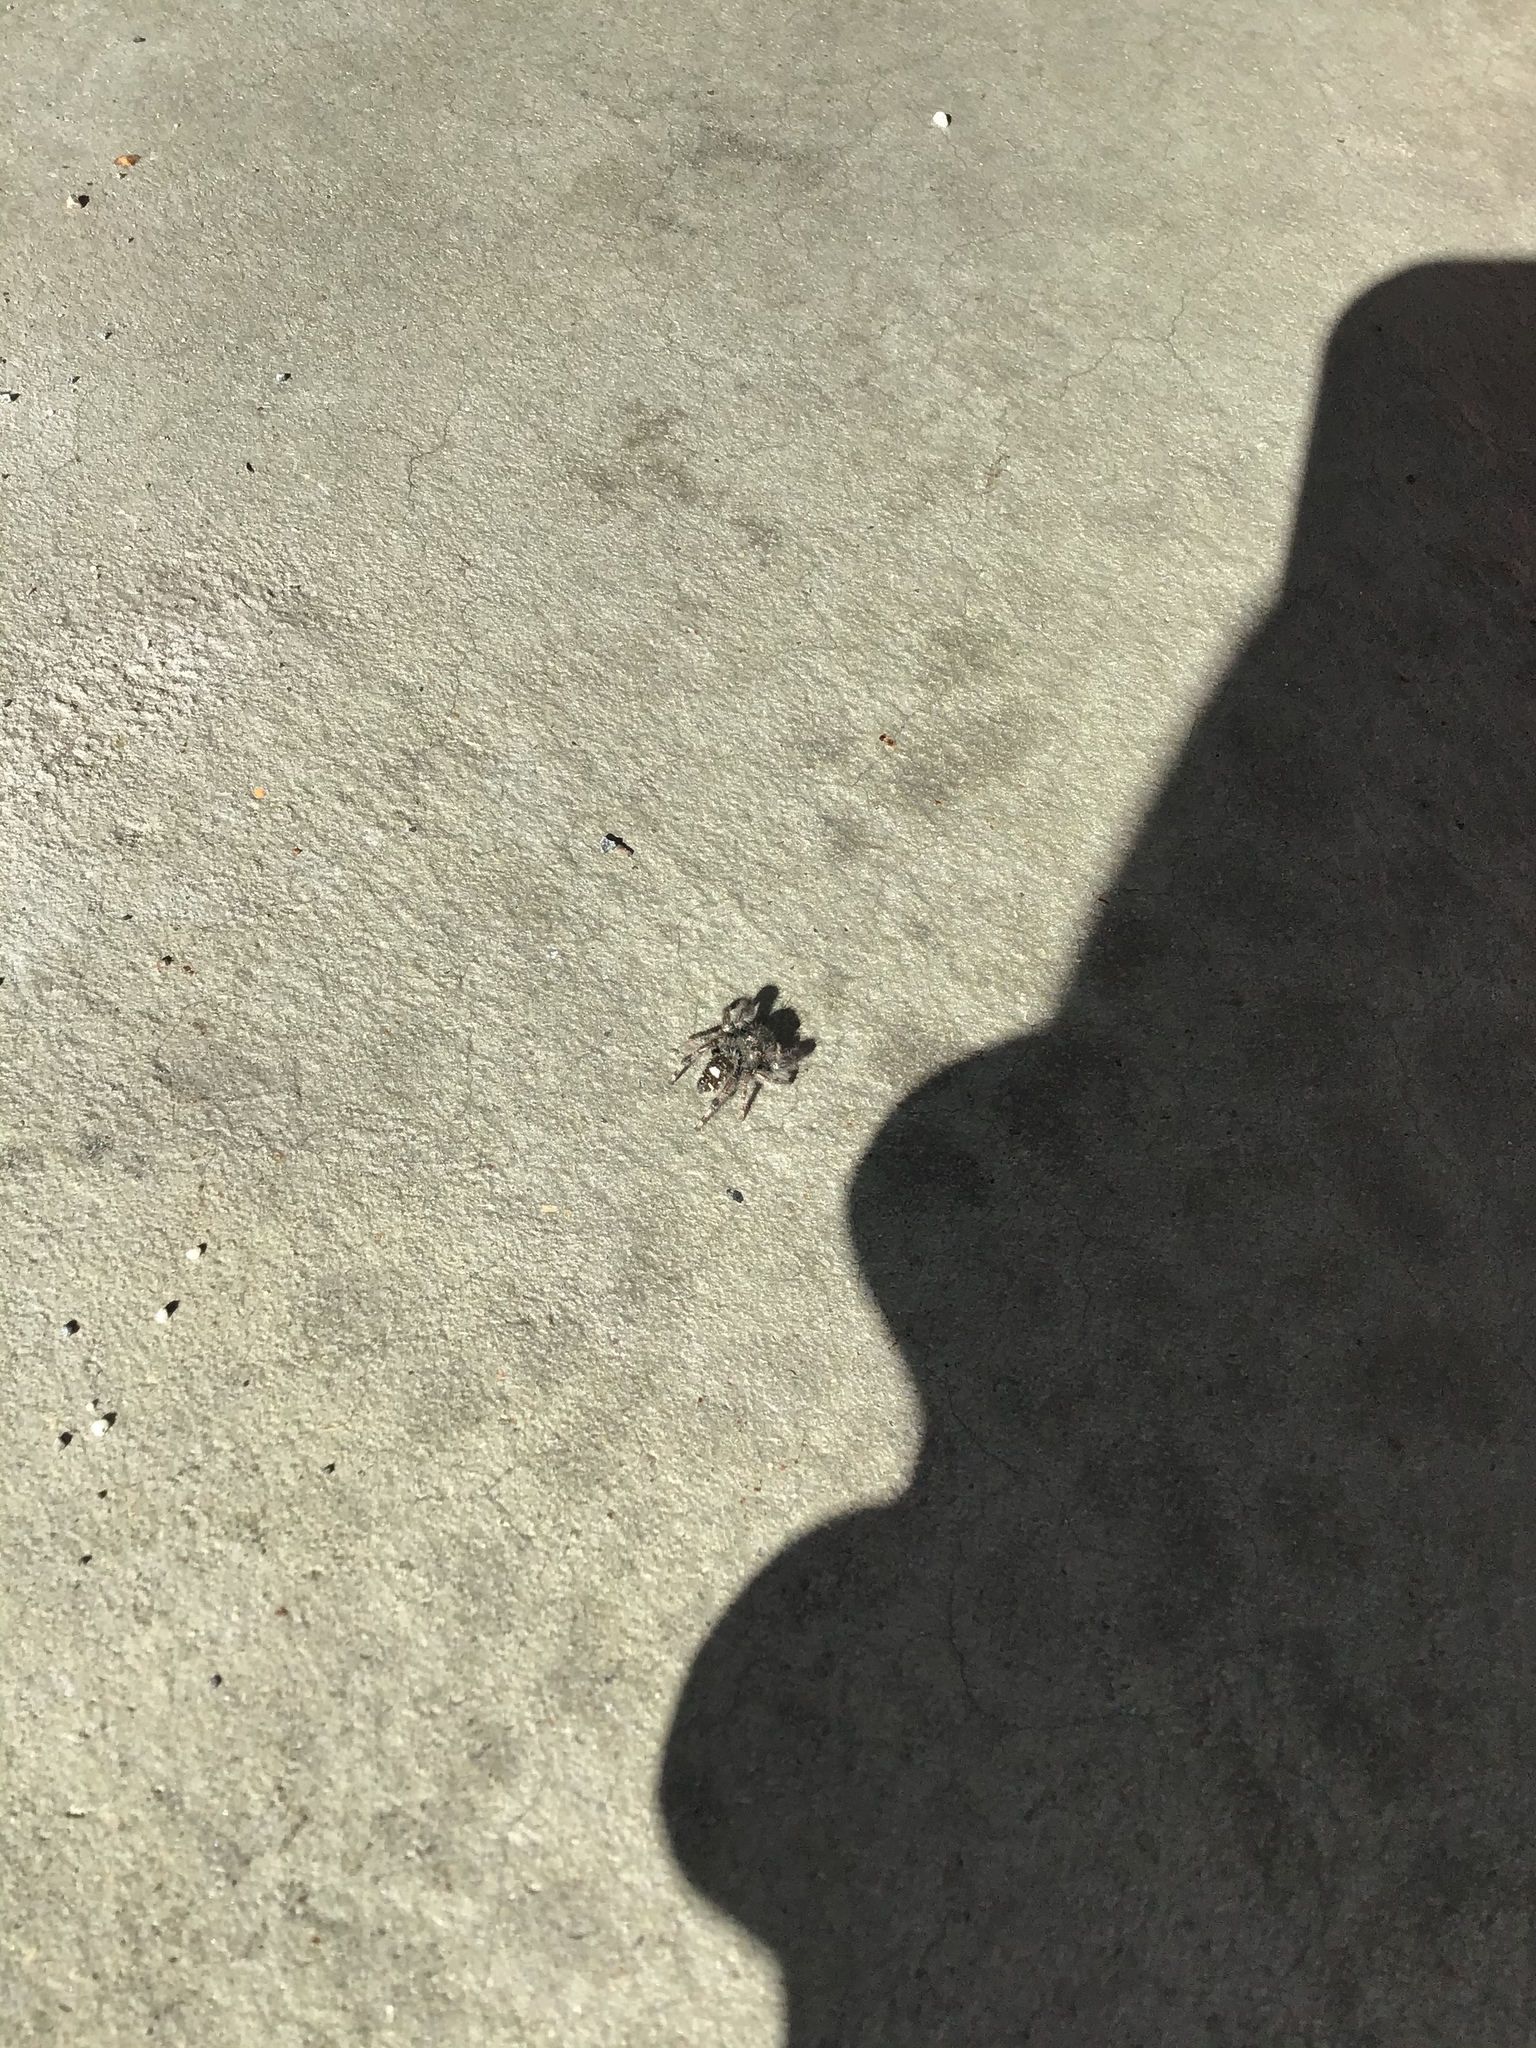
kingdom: Animalia
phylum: Arthropoda
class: Arachnida
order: Araneae
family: Salticidae
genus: Phidippus
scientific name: Phidippus audax
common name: Bold jumper
